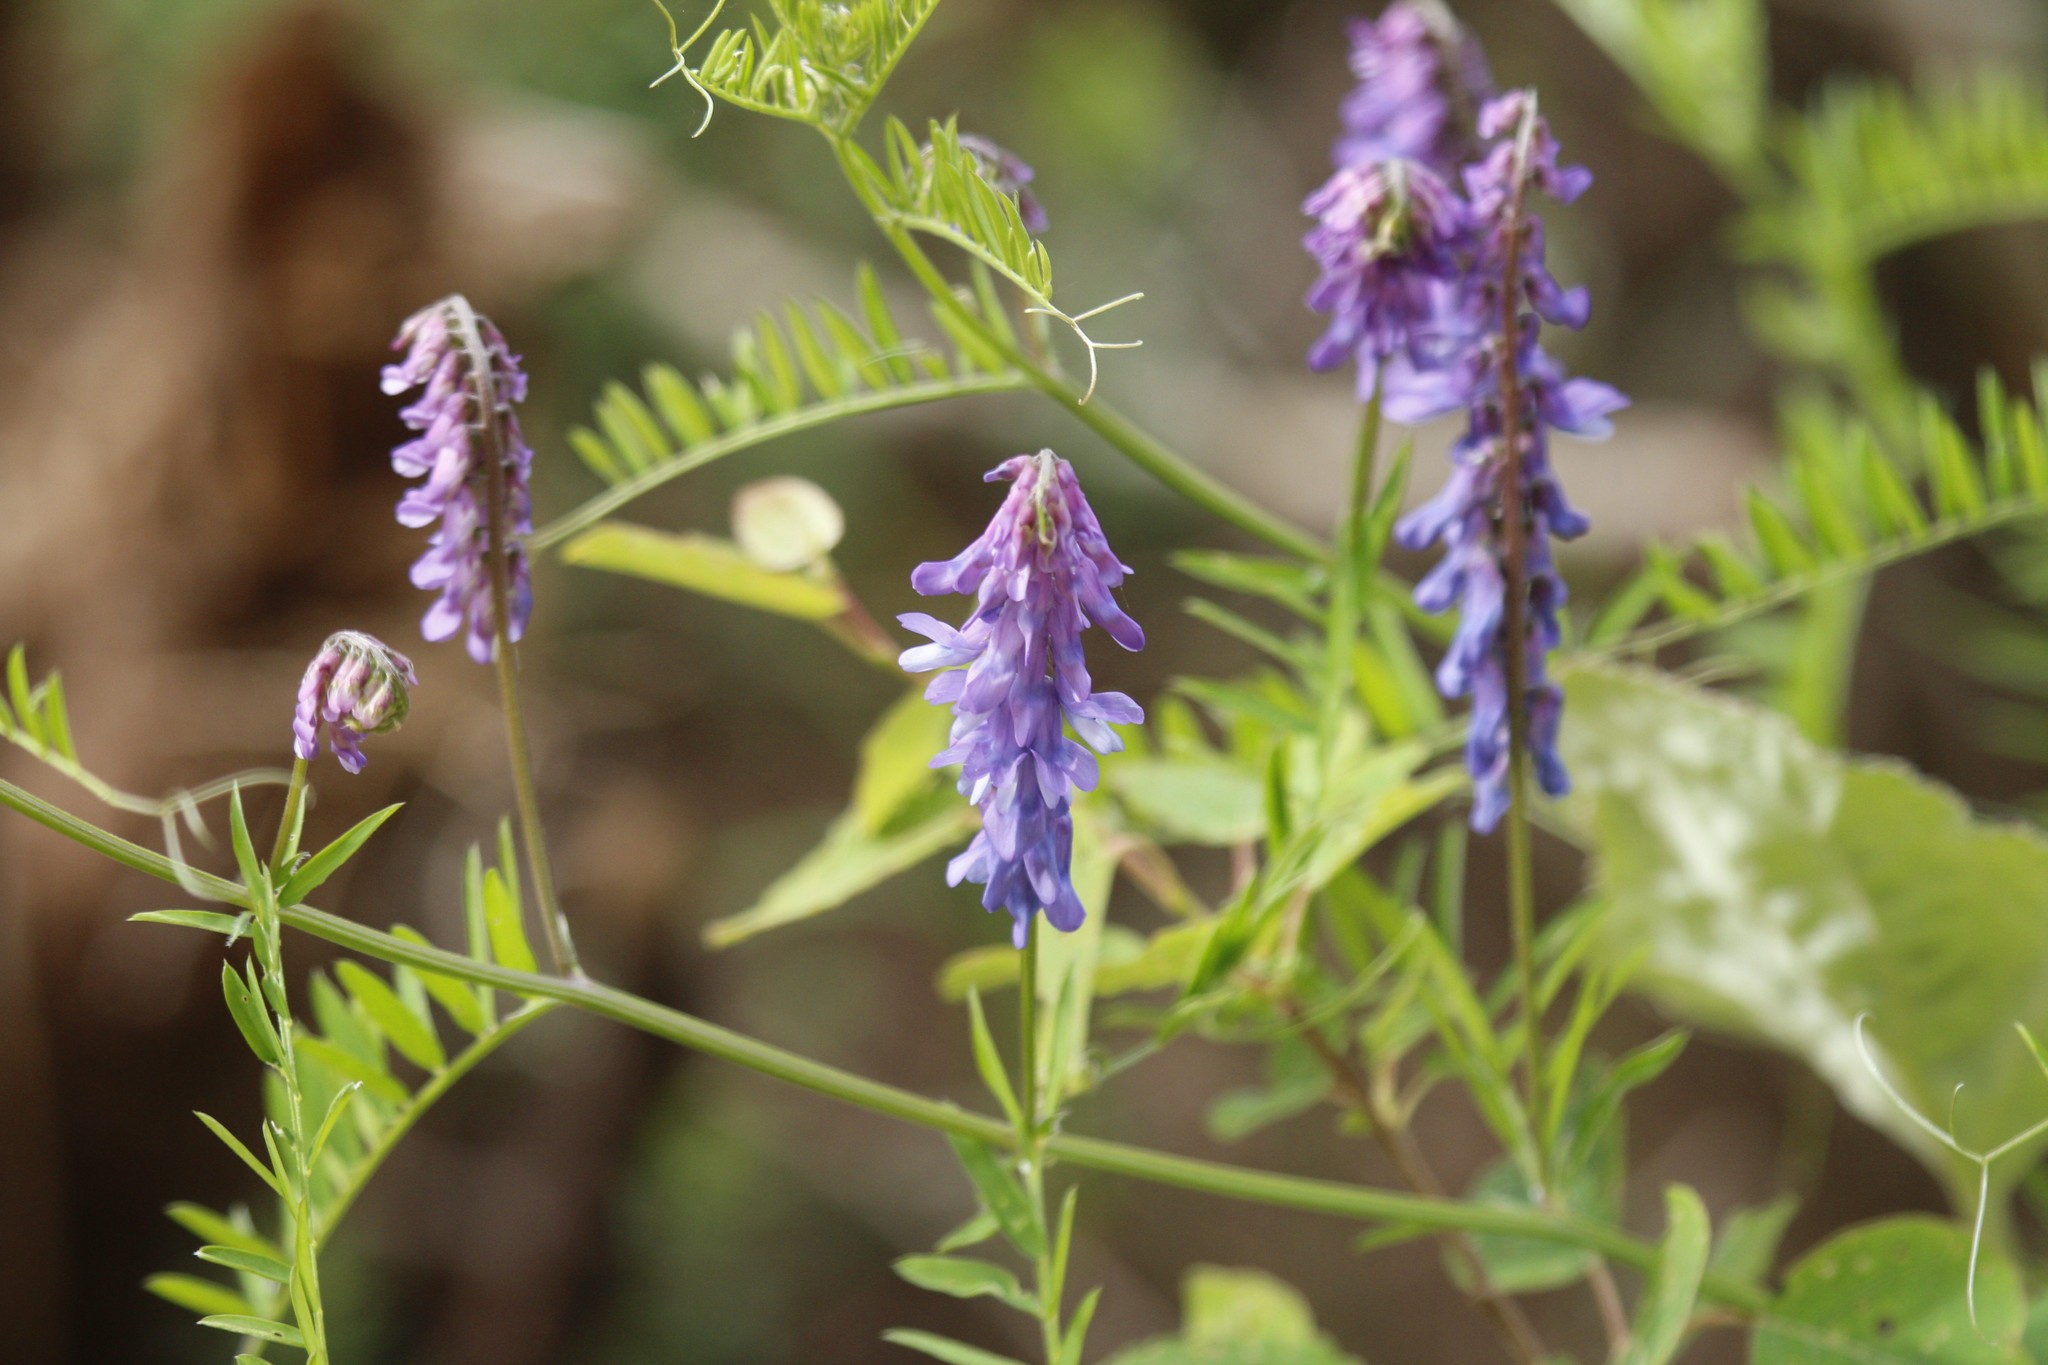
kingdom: Plantae
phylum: Tracheophyta
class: Magnoliopsida
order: Fabales
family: Fabaceae
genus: Vicia
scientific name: Vicia cracca
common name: Bird vetch
